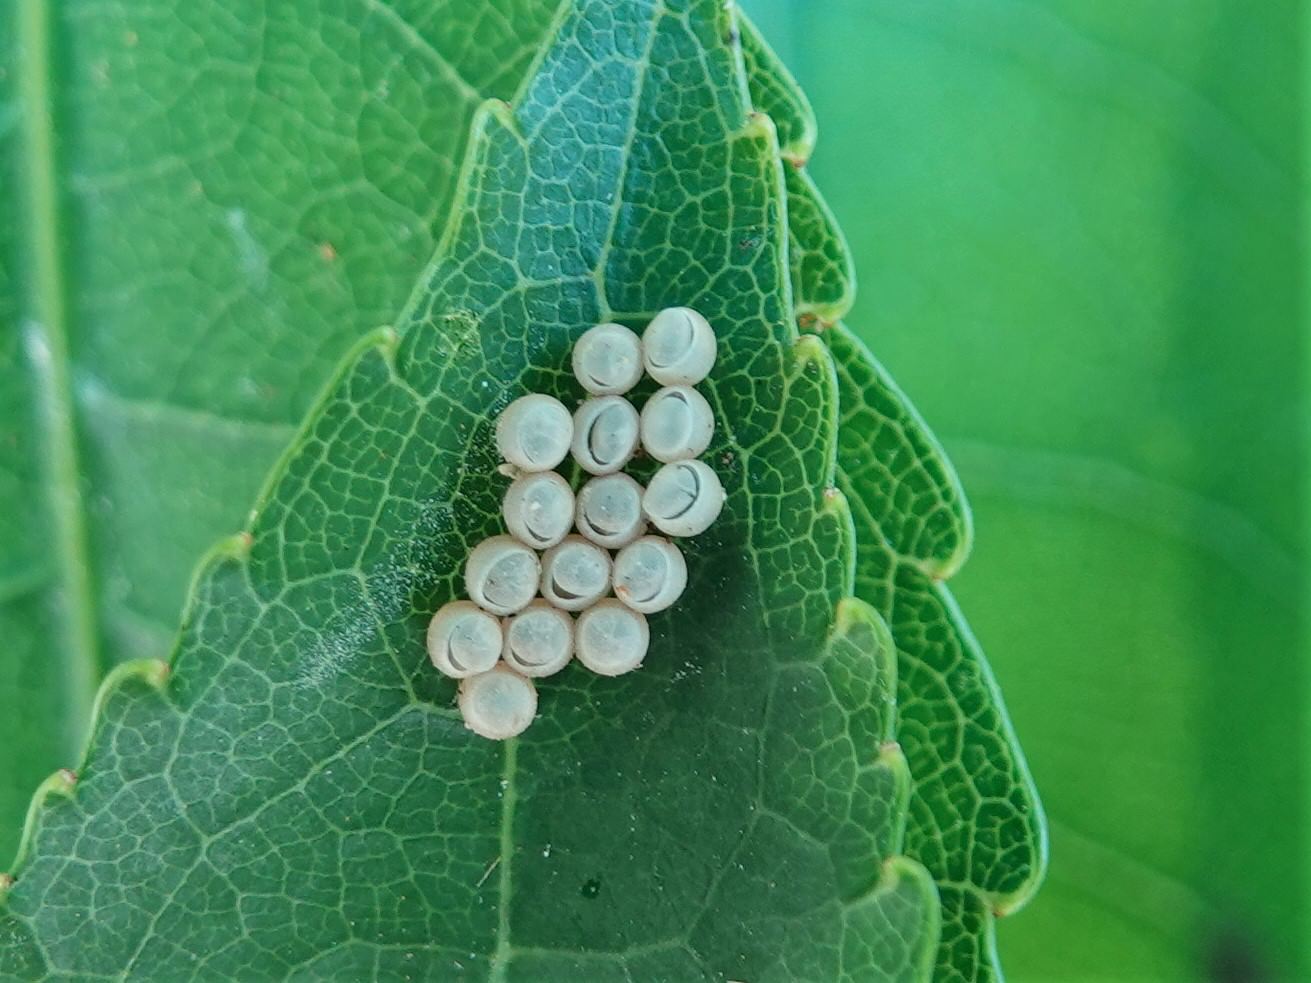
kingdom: Animalia
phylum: Arthropoda
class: Insecta
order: Hemiptera
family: Pentatomidae
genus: Glaucias
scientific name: Glaucias amyota
